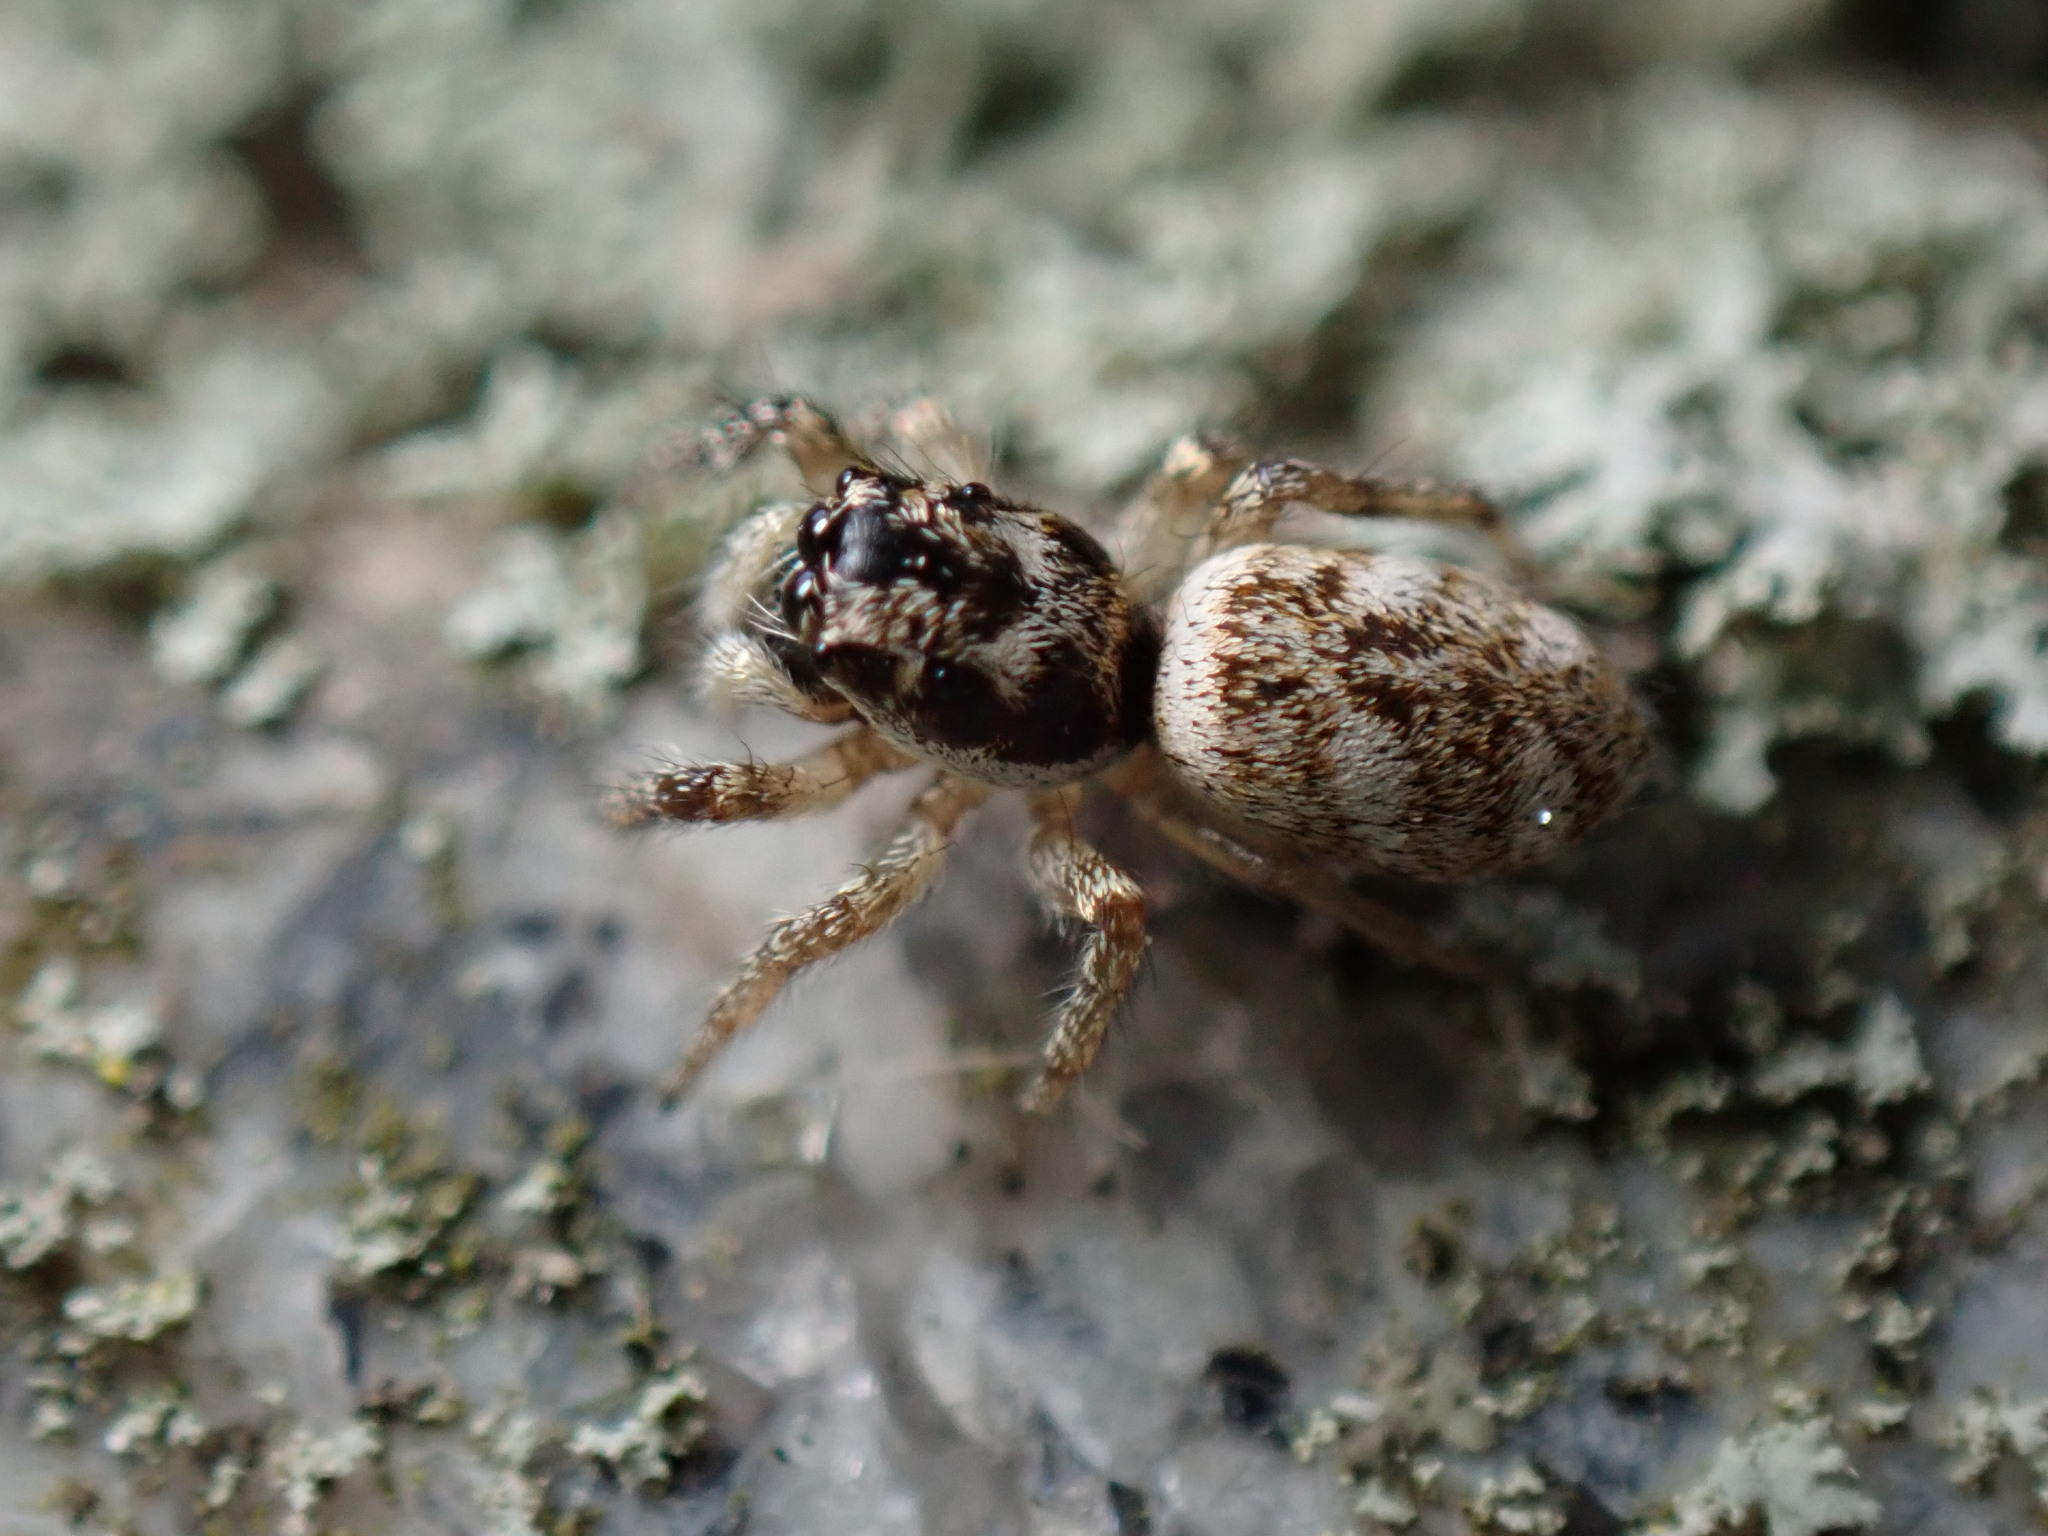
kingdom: Animalia
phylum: Arthropoda
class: Arachnida
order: Araneae
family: Salticidae
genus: Salticus
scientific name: Salticus scenicus
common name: Zebra jumper
